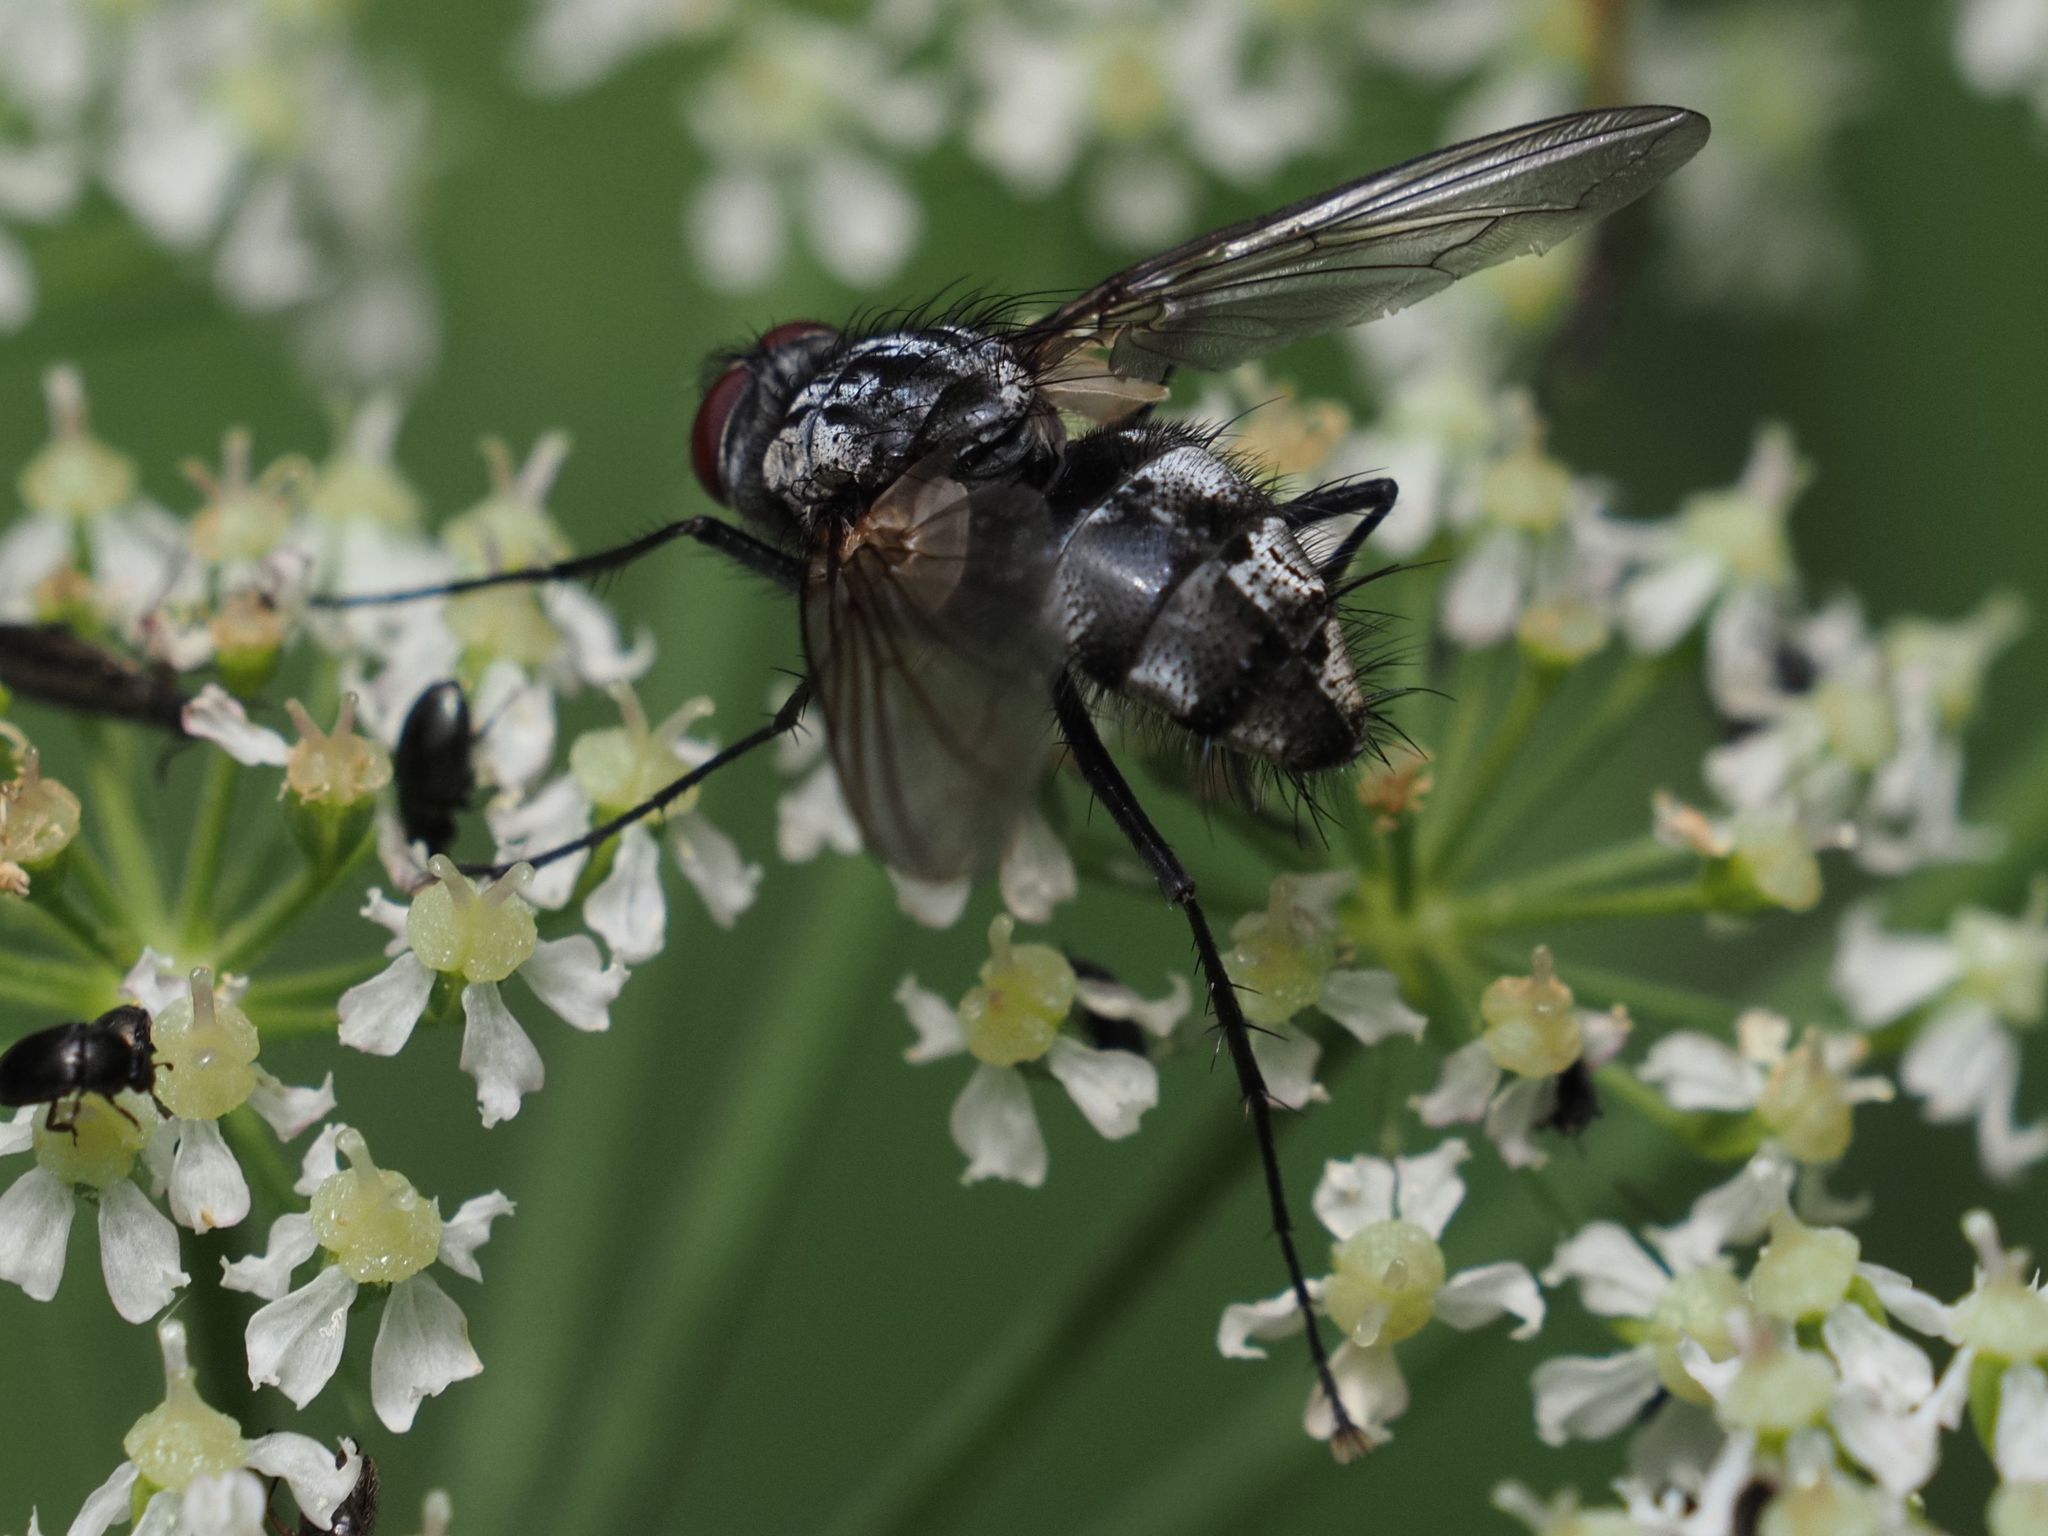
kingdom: Animalia
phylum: Arthropoda
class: Insecta
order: Diptera
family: Tachinidae
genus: Dinera
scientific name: Dinera ferina
